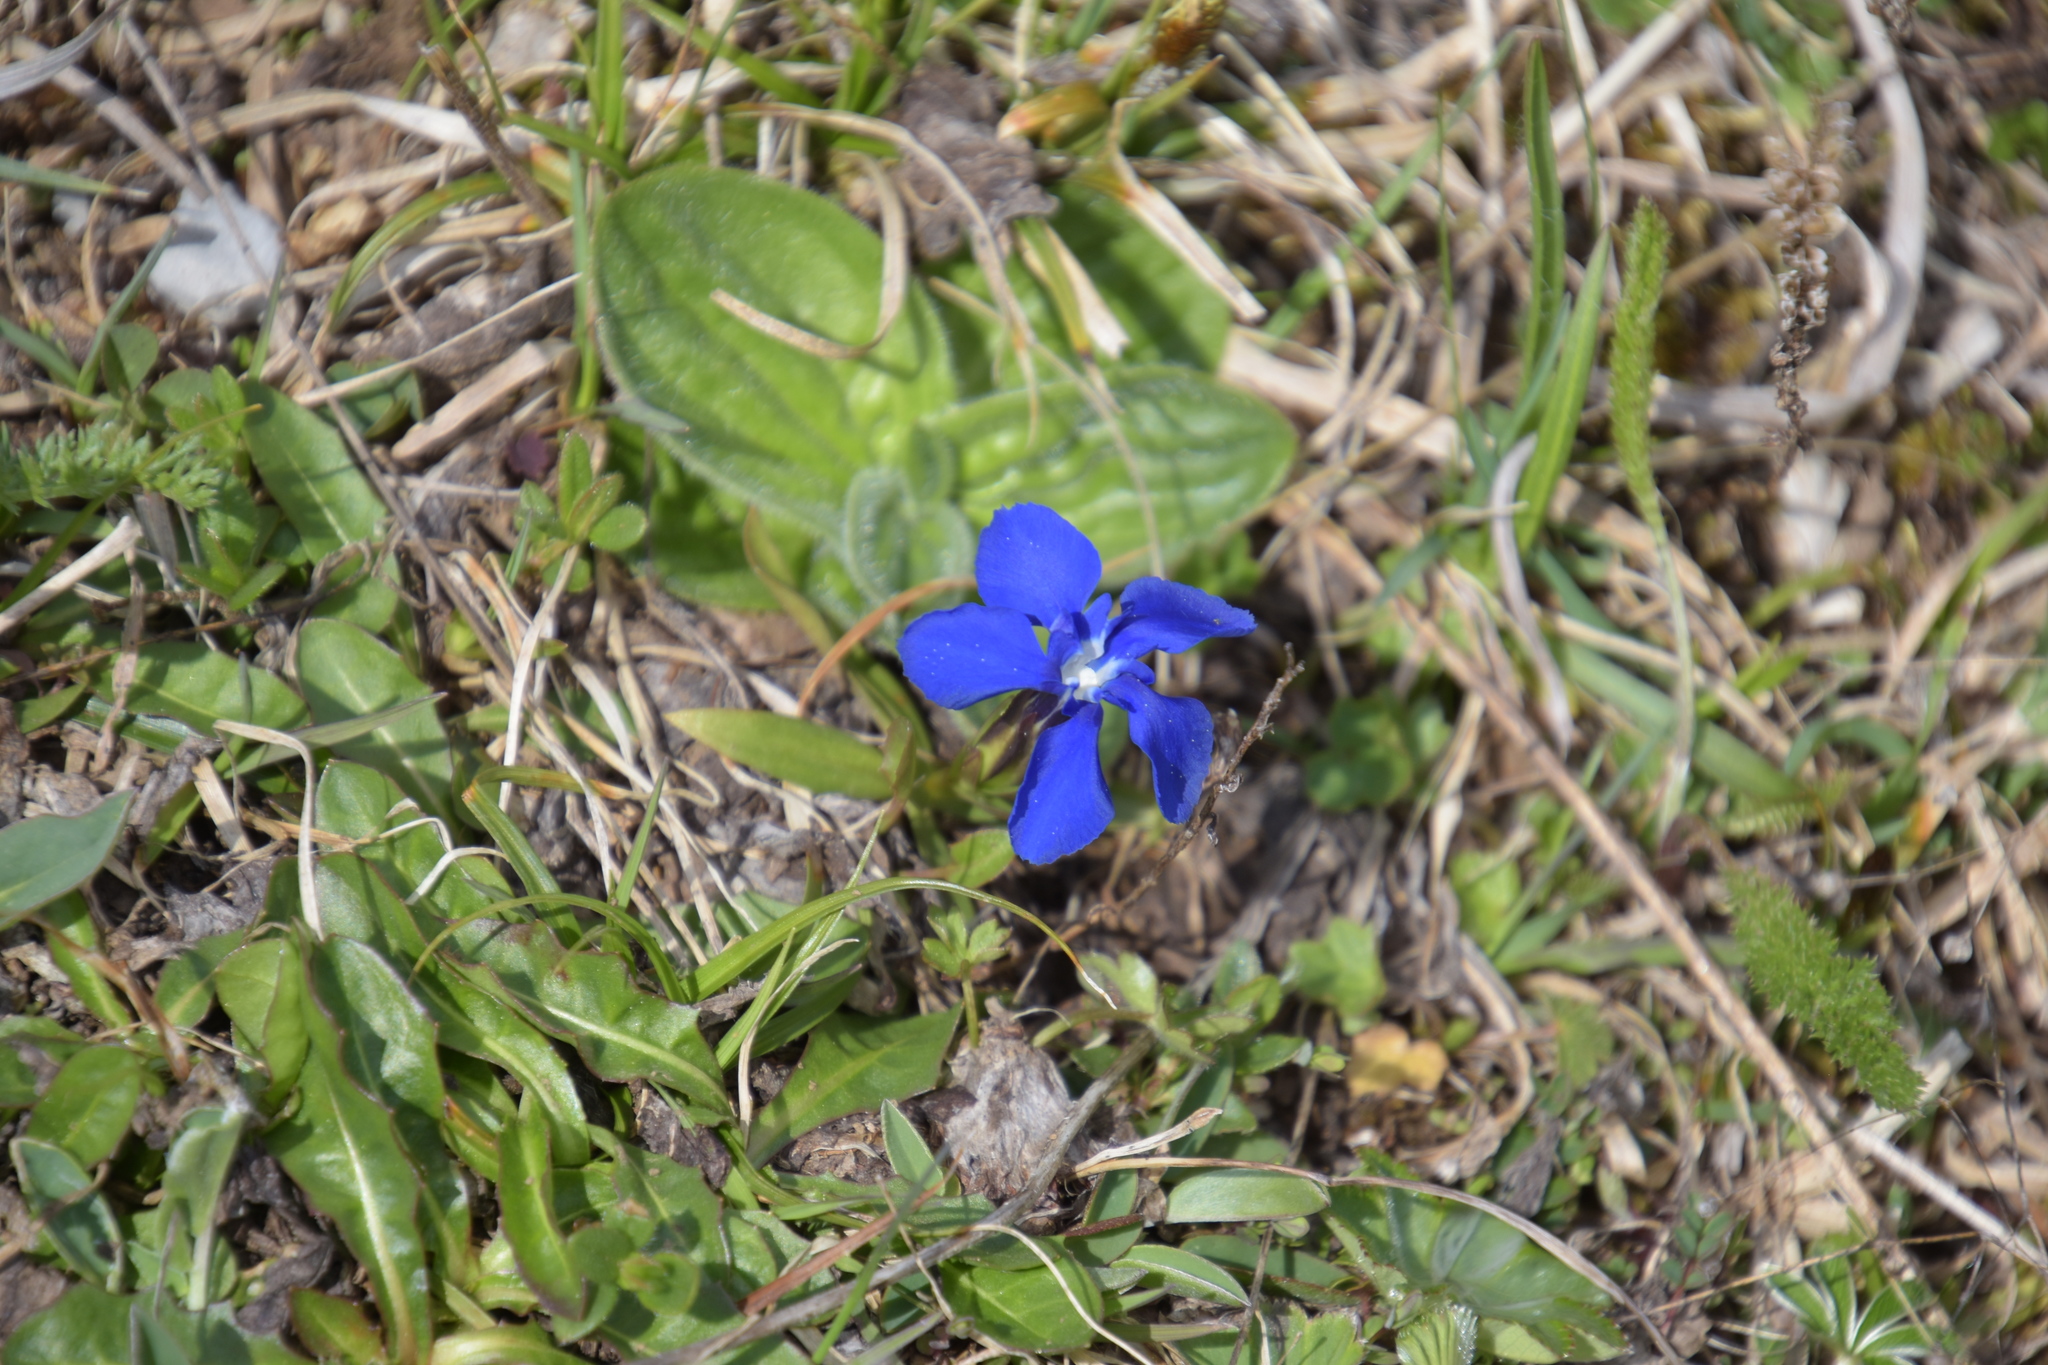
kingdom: Plantae
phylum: Tracheophyta
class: Magnoliopsida
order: Gentianales
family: Gentianaceae
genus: Gentiana
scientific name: Gentiana verna
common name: Spring gentian
